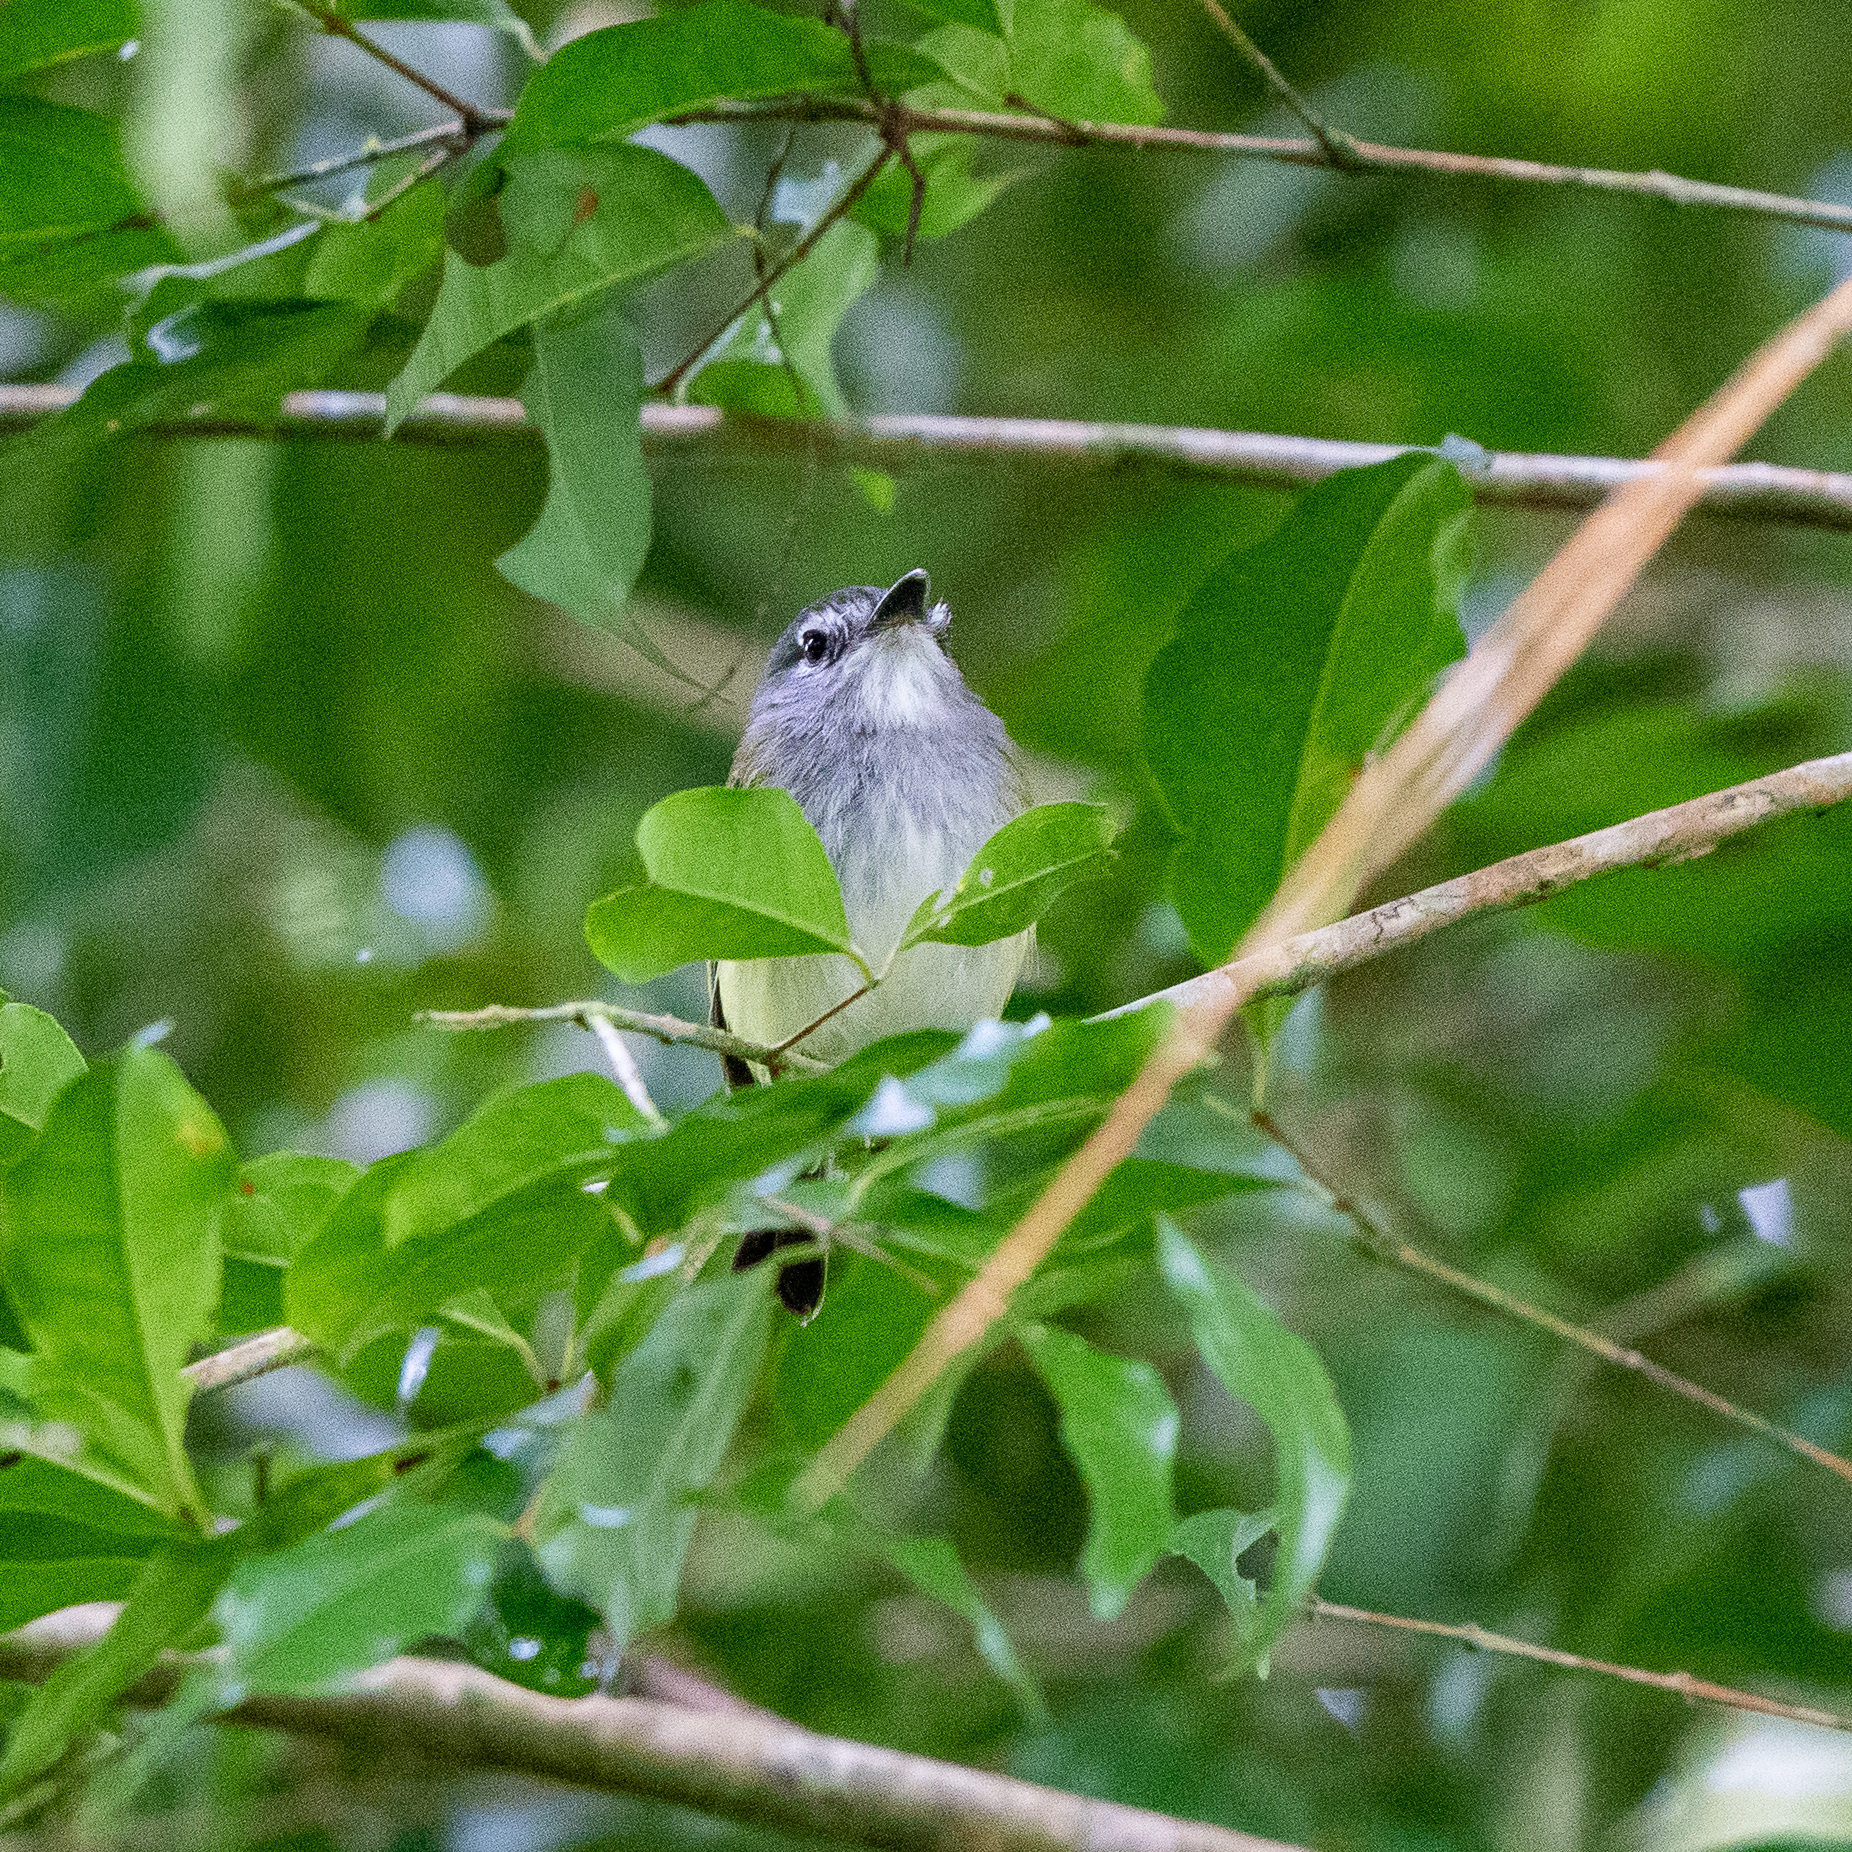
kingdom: Animalia
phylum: Chordata
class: Aves
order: Passeriformes
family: Tyrannidae
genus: Poecilotriccus
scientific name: Poecilotriccus sylvia
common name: Slate-headed tody-flycatcher
